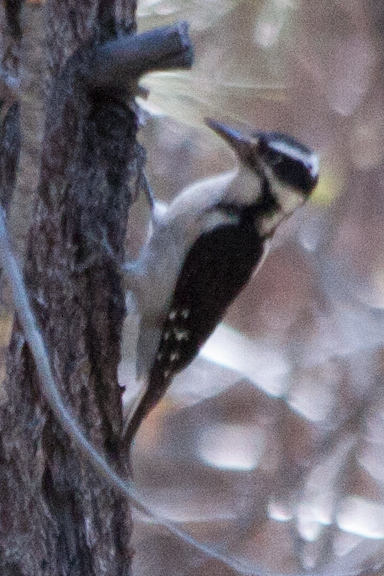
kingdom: Animalia
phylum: Chordata
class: Aves
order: Piciformes
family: Picidae
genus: Leuconotopicus
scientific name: Leuconotopicus villosus
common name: Hairy woodpecker
